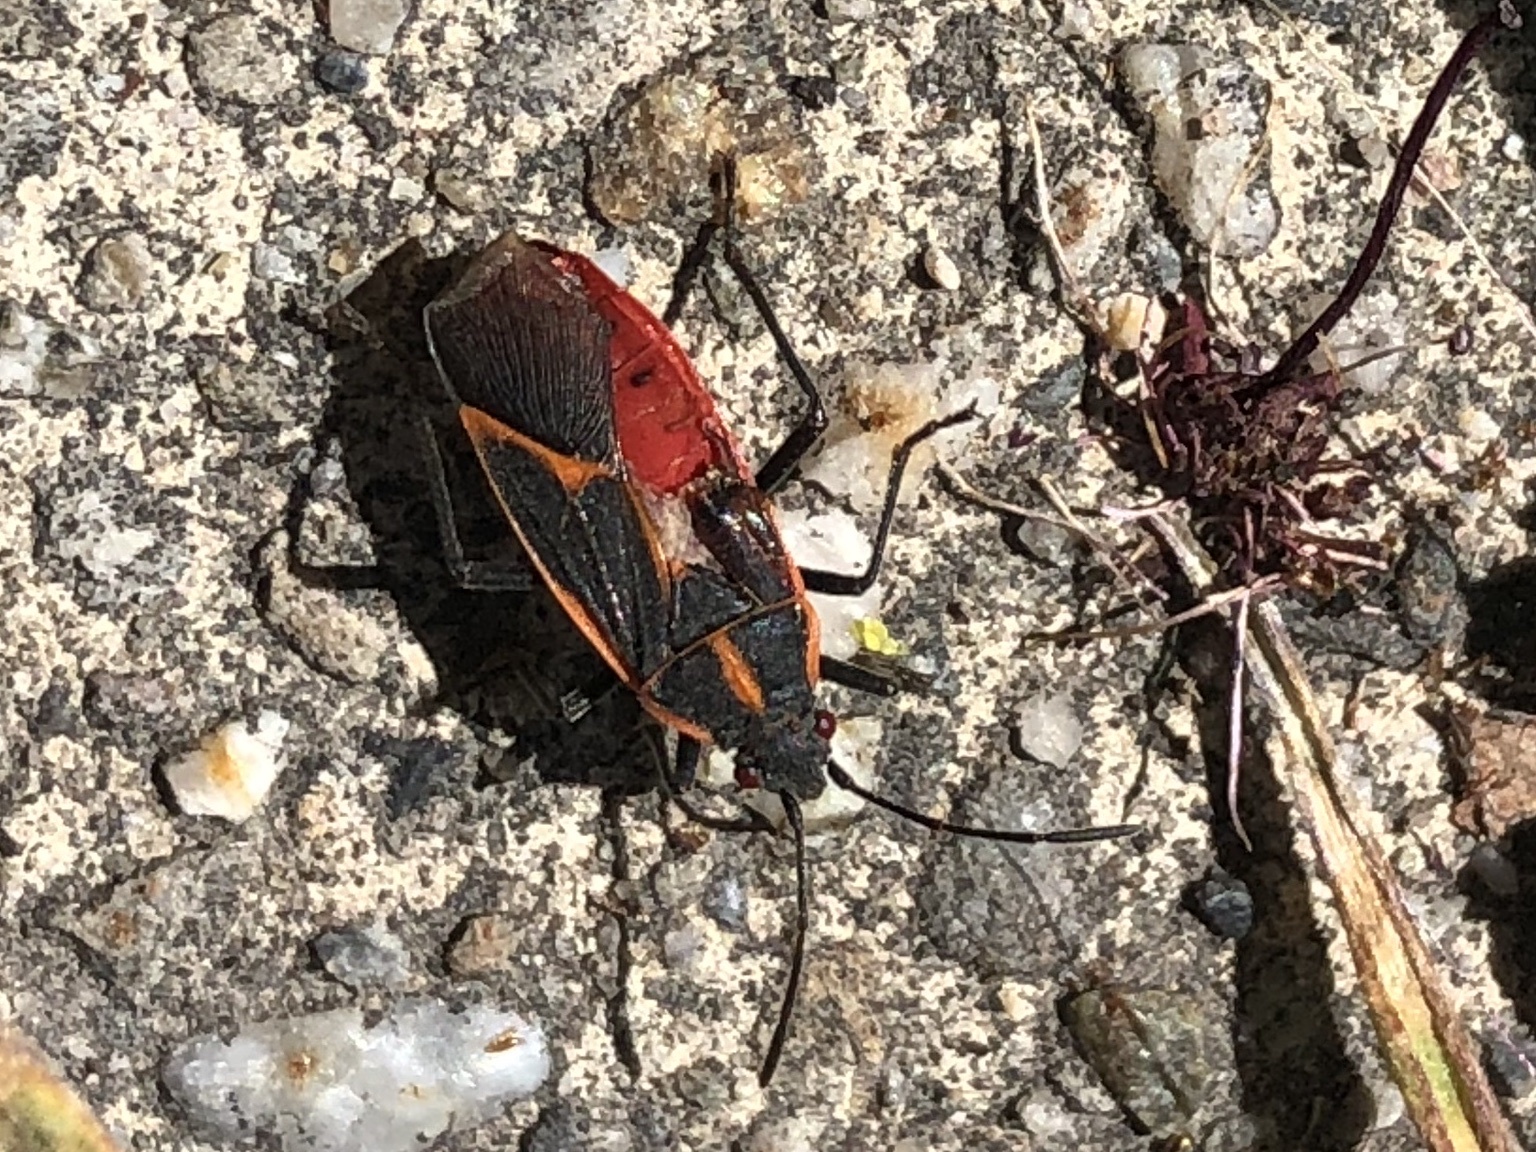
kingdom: Animalia
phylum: Arthropoda
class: Insecta
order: Hemiptera
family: Rhopalidae
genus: Boisea
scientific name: Boisea trivittata
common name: Boxelder bug
